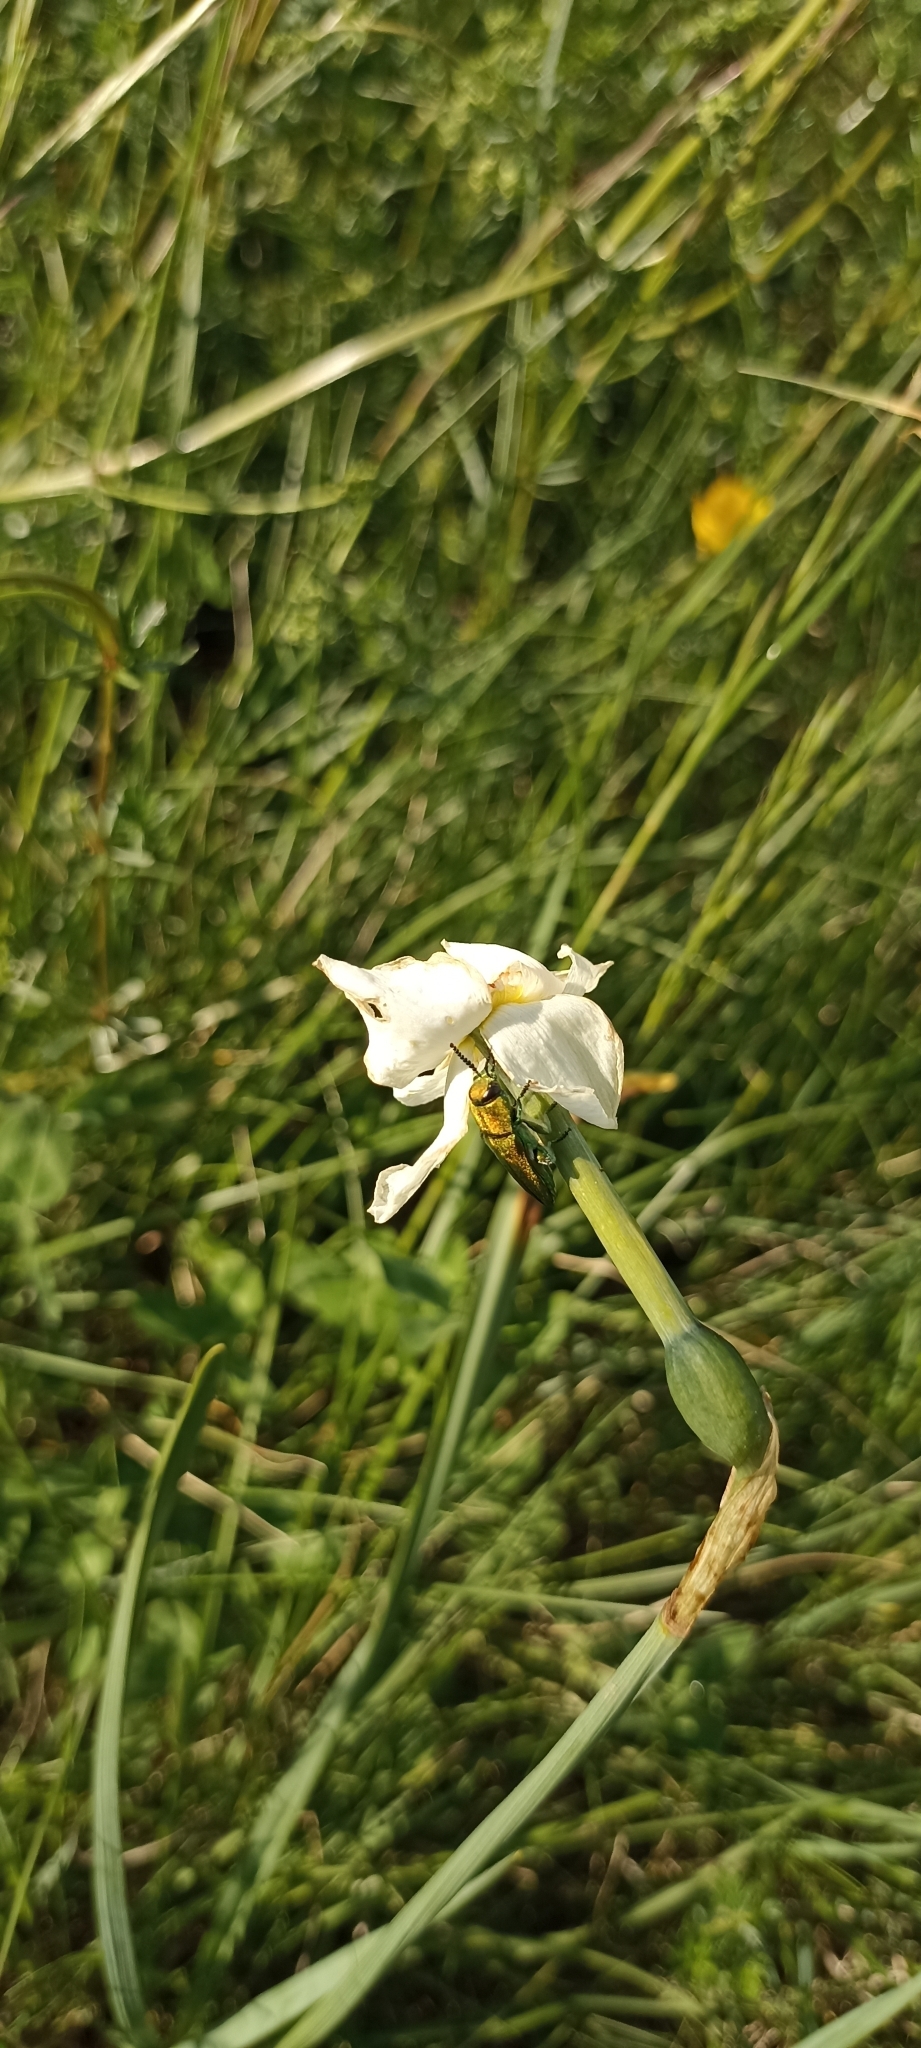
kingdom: Animalia
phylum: Arthropoda
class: Insecta
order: Coleoptera
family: Buprestidae
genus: Anthaxia
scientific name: Anthaxia hungarica
